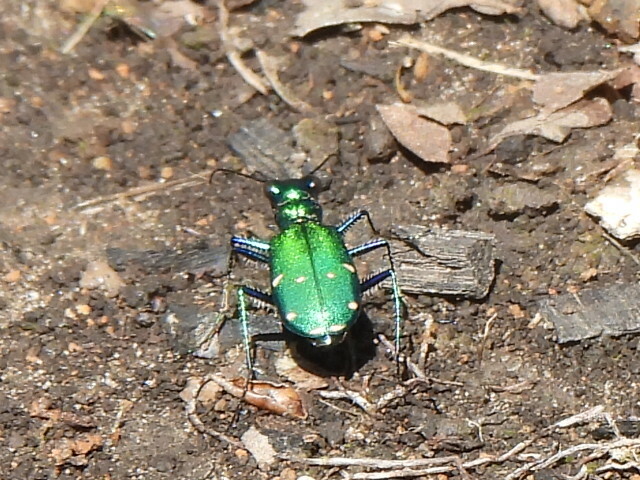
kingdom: Animalia
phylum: Arthropoda
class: Insecta
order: Coleoptera
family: Carabidae
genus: Cicindela
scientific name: Cicindela sexguttata
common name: Six-spotted tiger beetle
